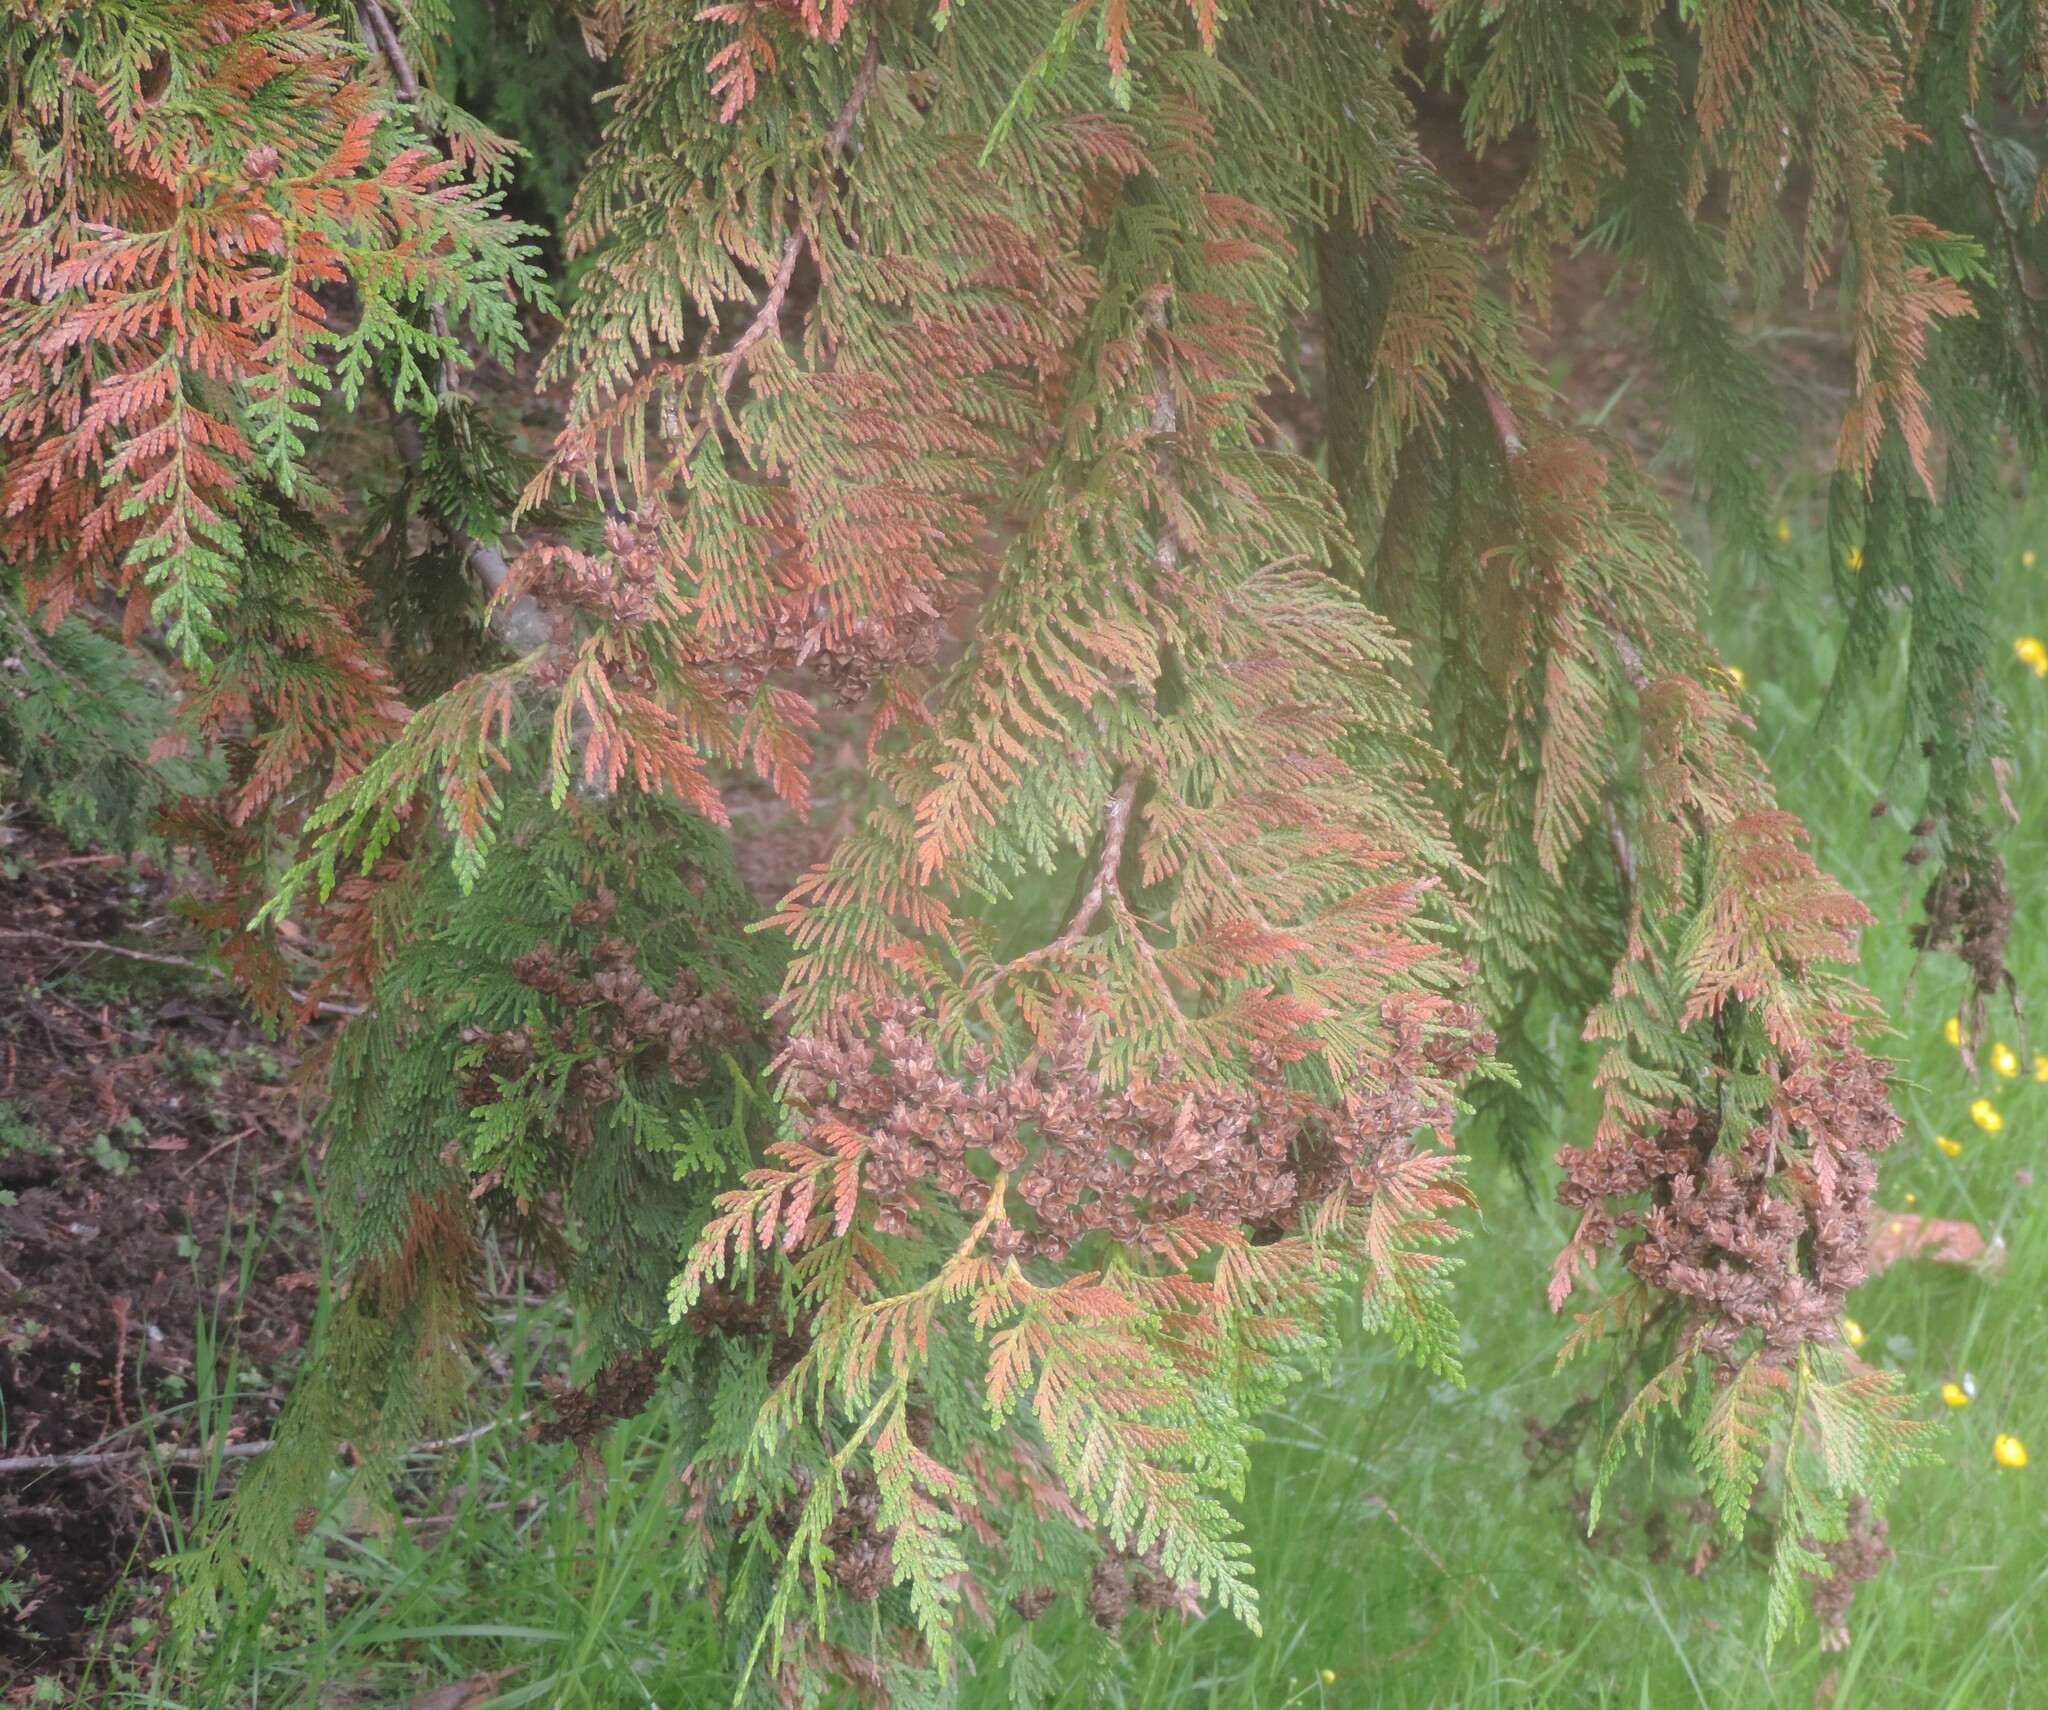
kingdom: Plantae
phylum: Tracheophyta
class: Pinopsida
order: Pinales
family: Cupressaceae
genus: Thuja
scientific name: Thuja plicata
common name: Western red-cedar
